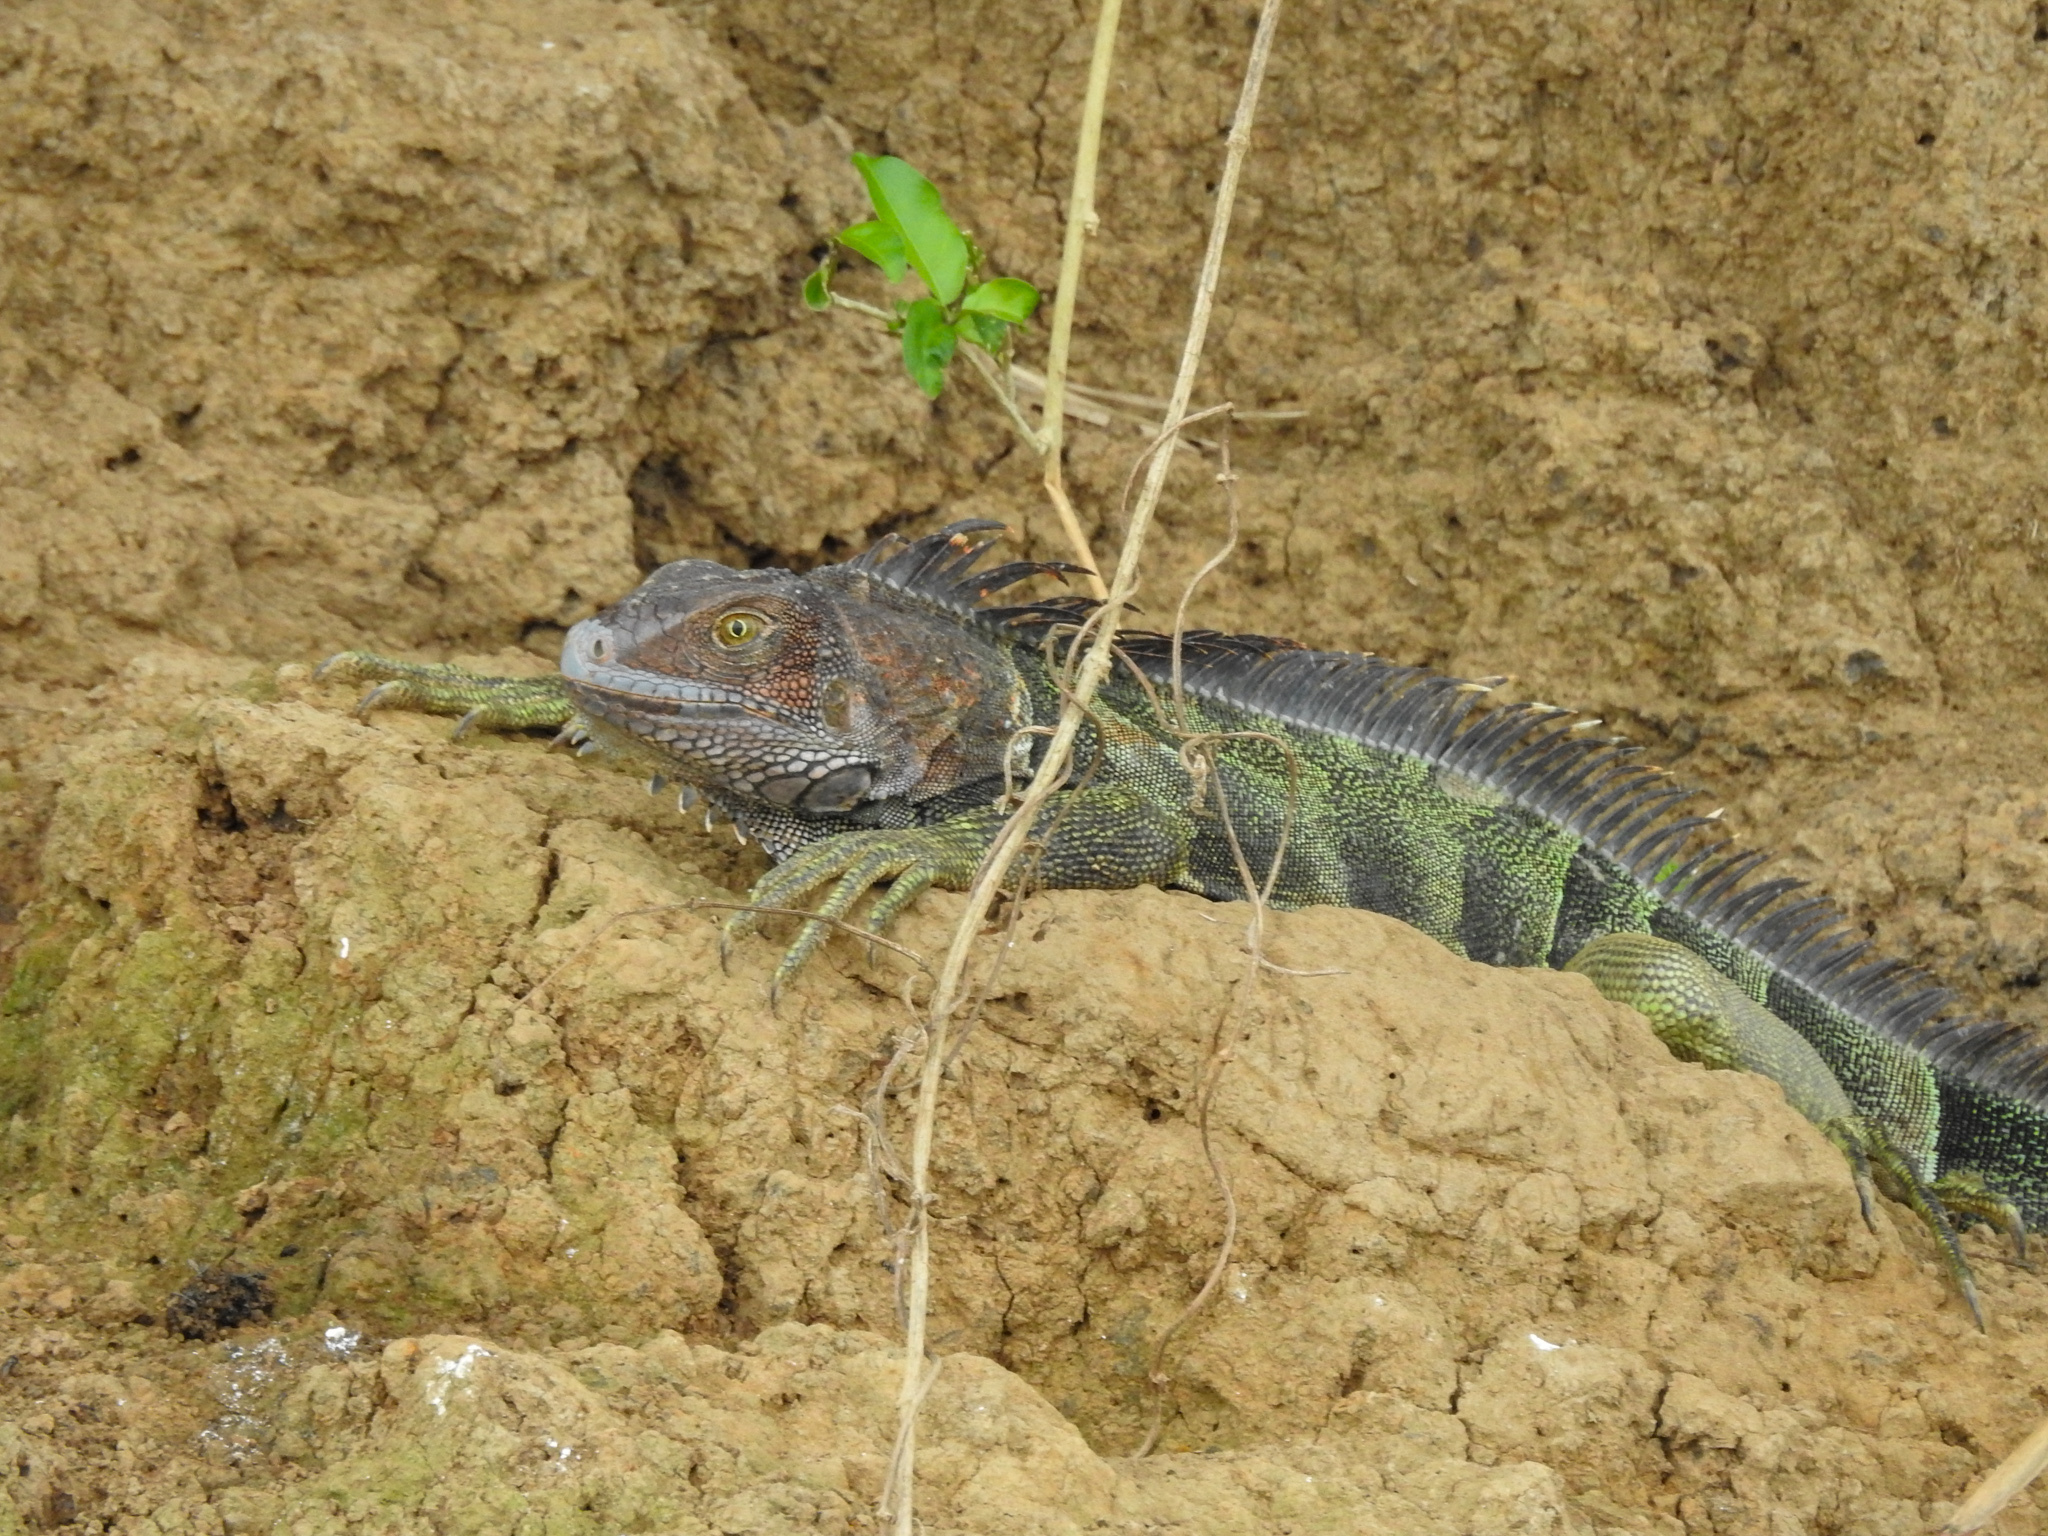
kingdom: Animalia
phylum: Chordata
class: Squamata
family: Iguanidae
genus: Iguana
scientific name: Iguana iguana
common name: Green iguana
